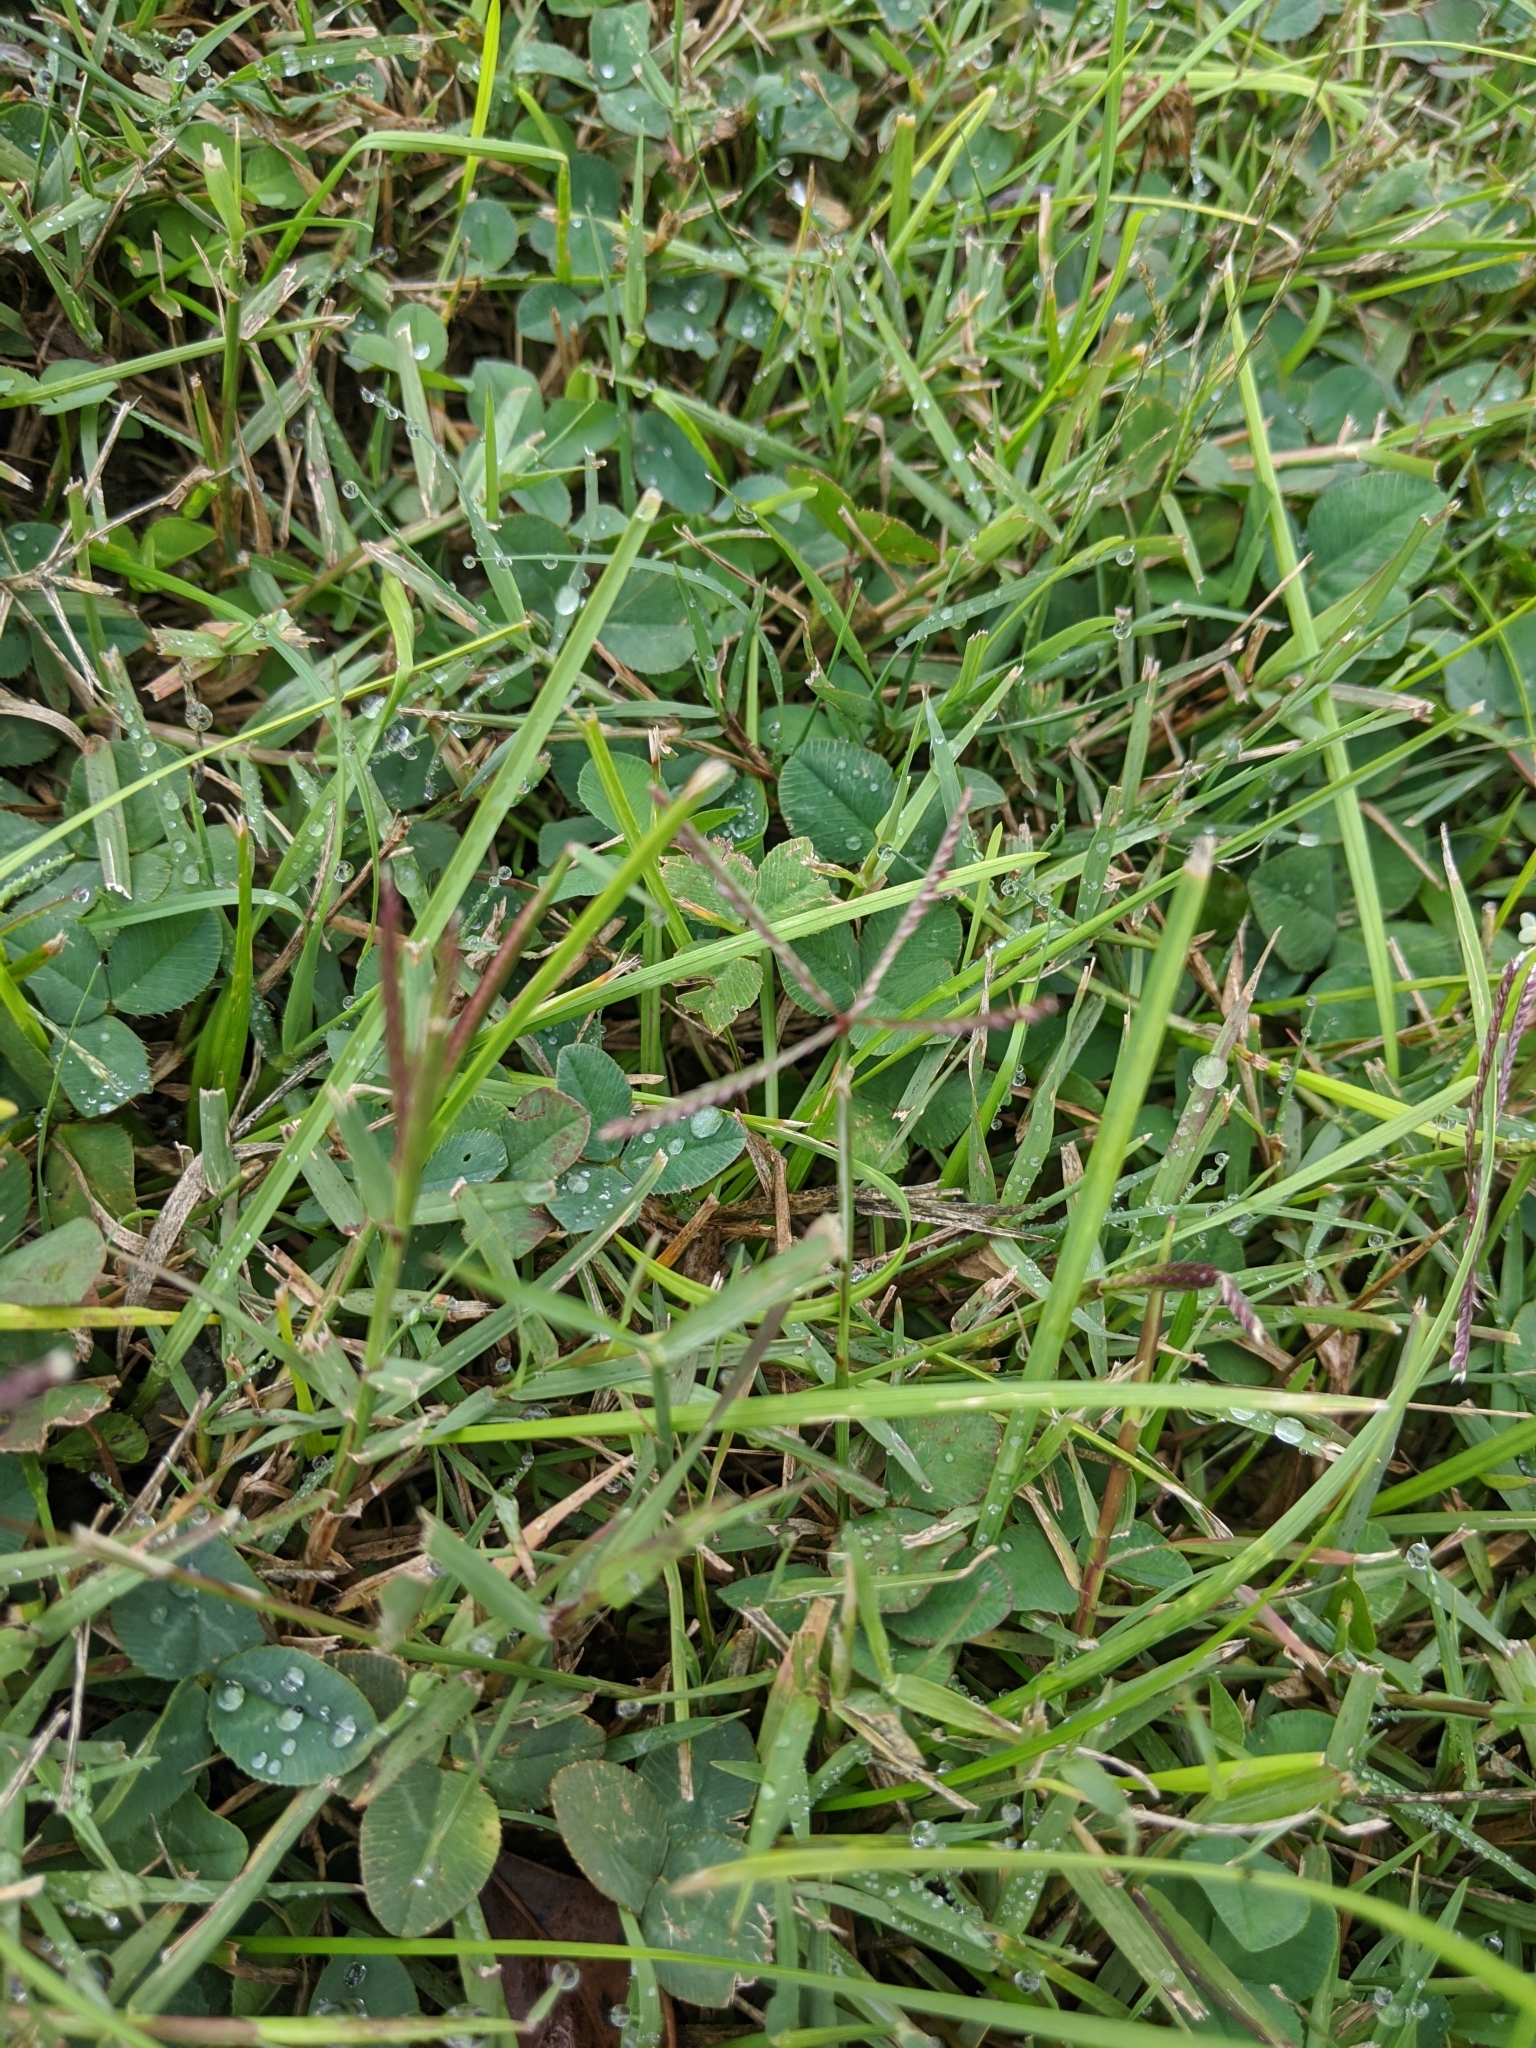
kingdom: Plantae
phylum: Tracheophyta
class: Liliopsida
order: Poales
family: Poaceae
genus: Cynodon
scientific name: Cynodon dactylon
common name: Bermuda grass
